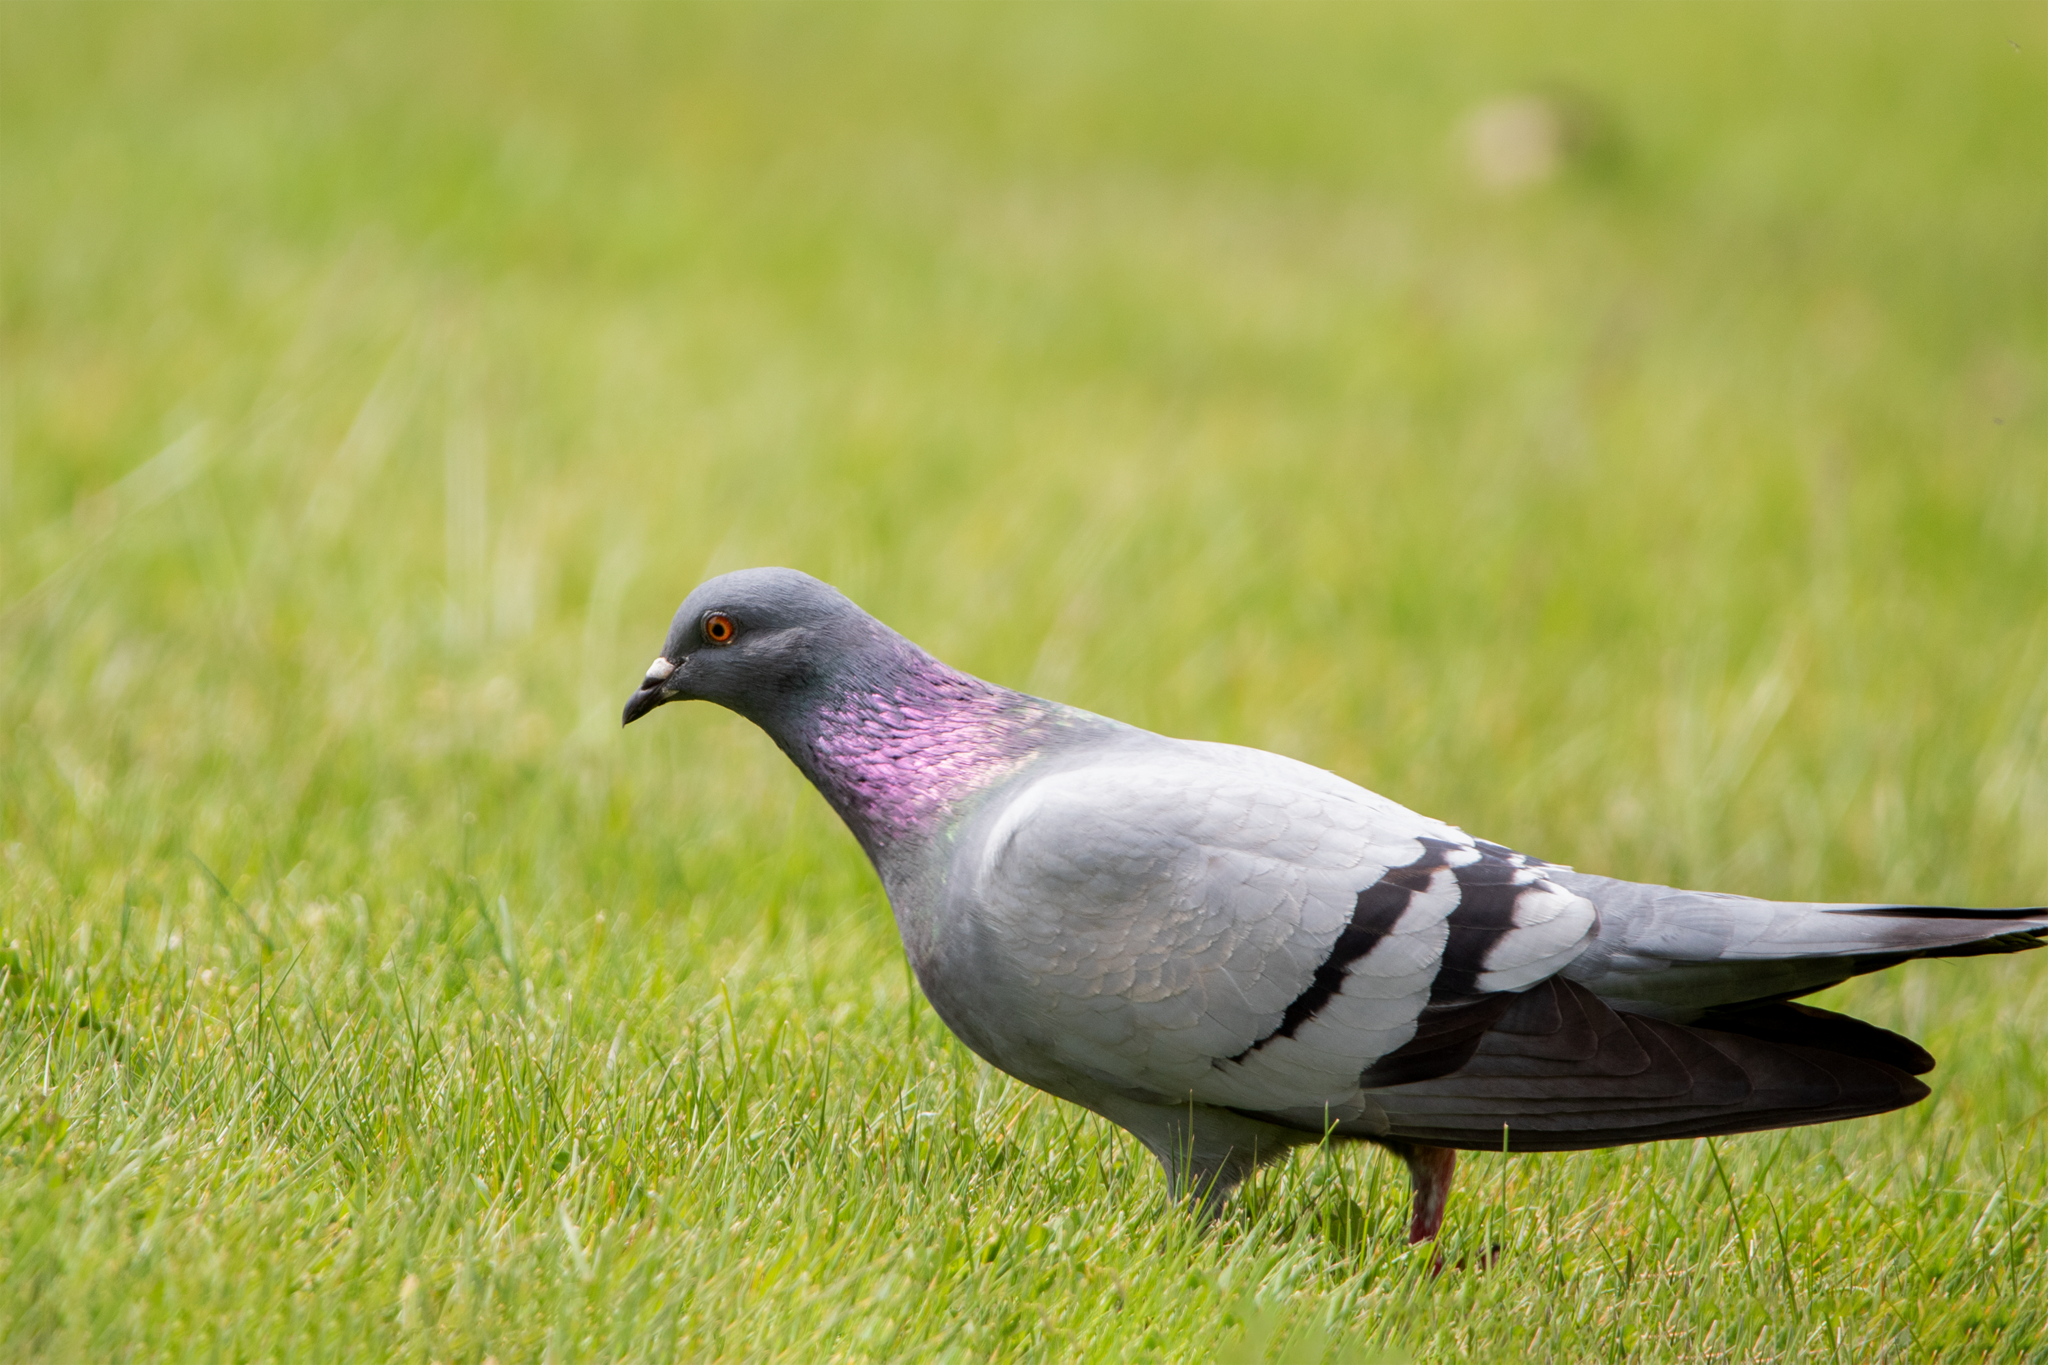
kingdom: Animalia
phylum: Chordata
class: Aves
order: Columbiformes
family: Columbidae
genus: Columba
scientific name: Columba livia
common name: Rock pigeon
